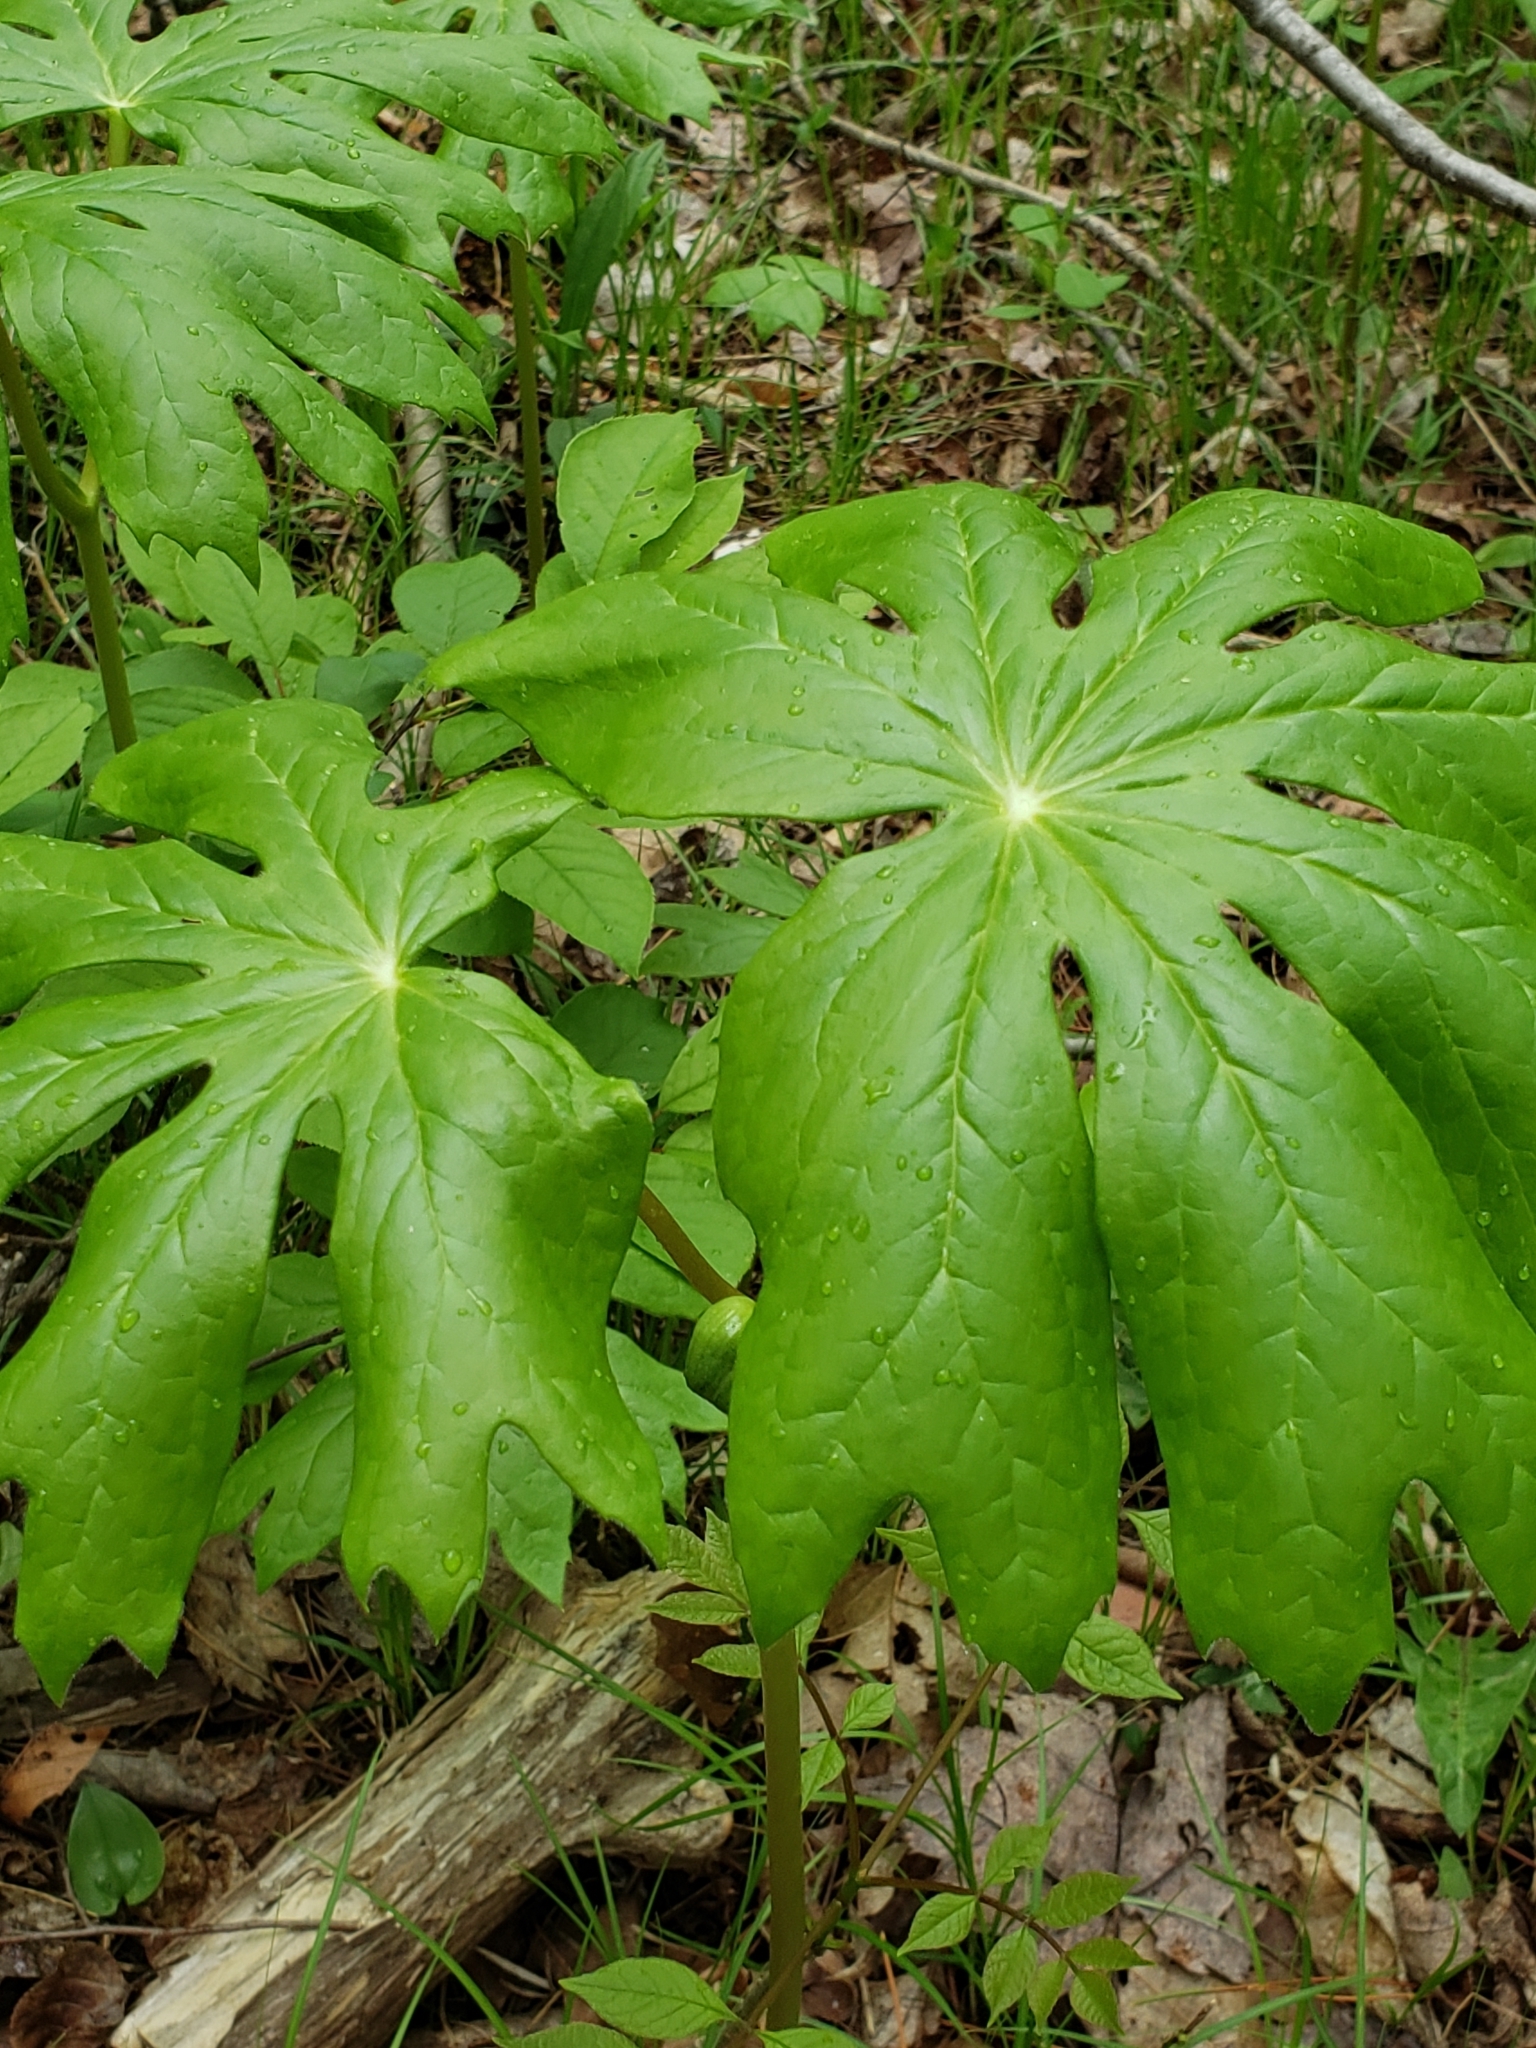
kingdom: Plantae
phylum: Tracheophyta
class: Magnoliopsida
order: Ranunculales
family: Berberidaceae
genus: Podophyllum
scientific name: Podophyllum peltatum
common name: Wild mandrake
